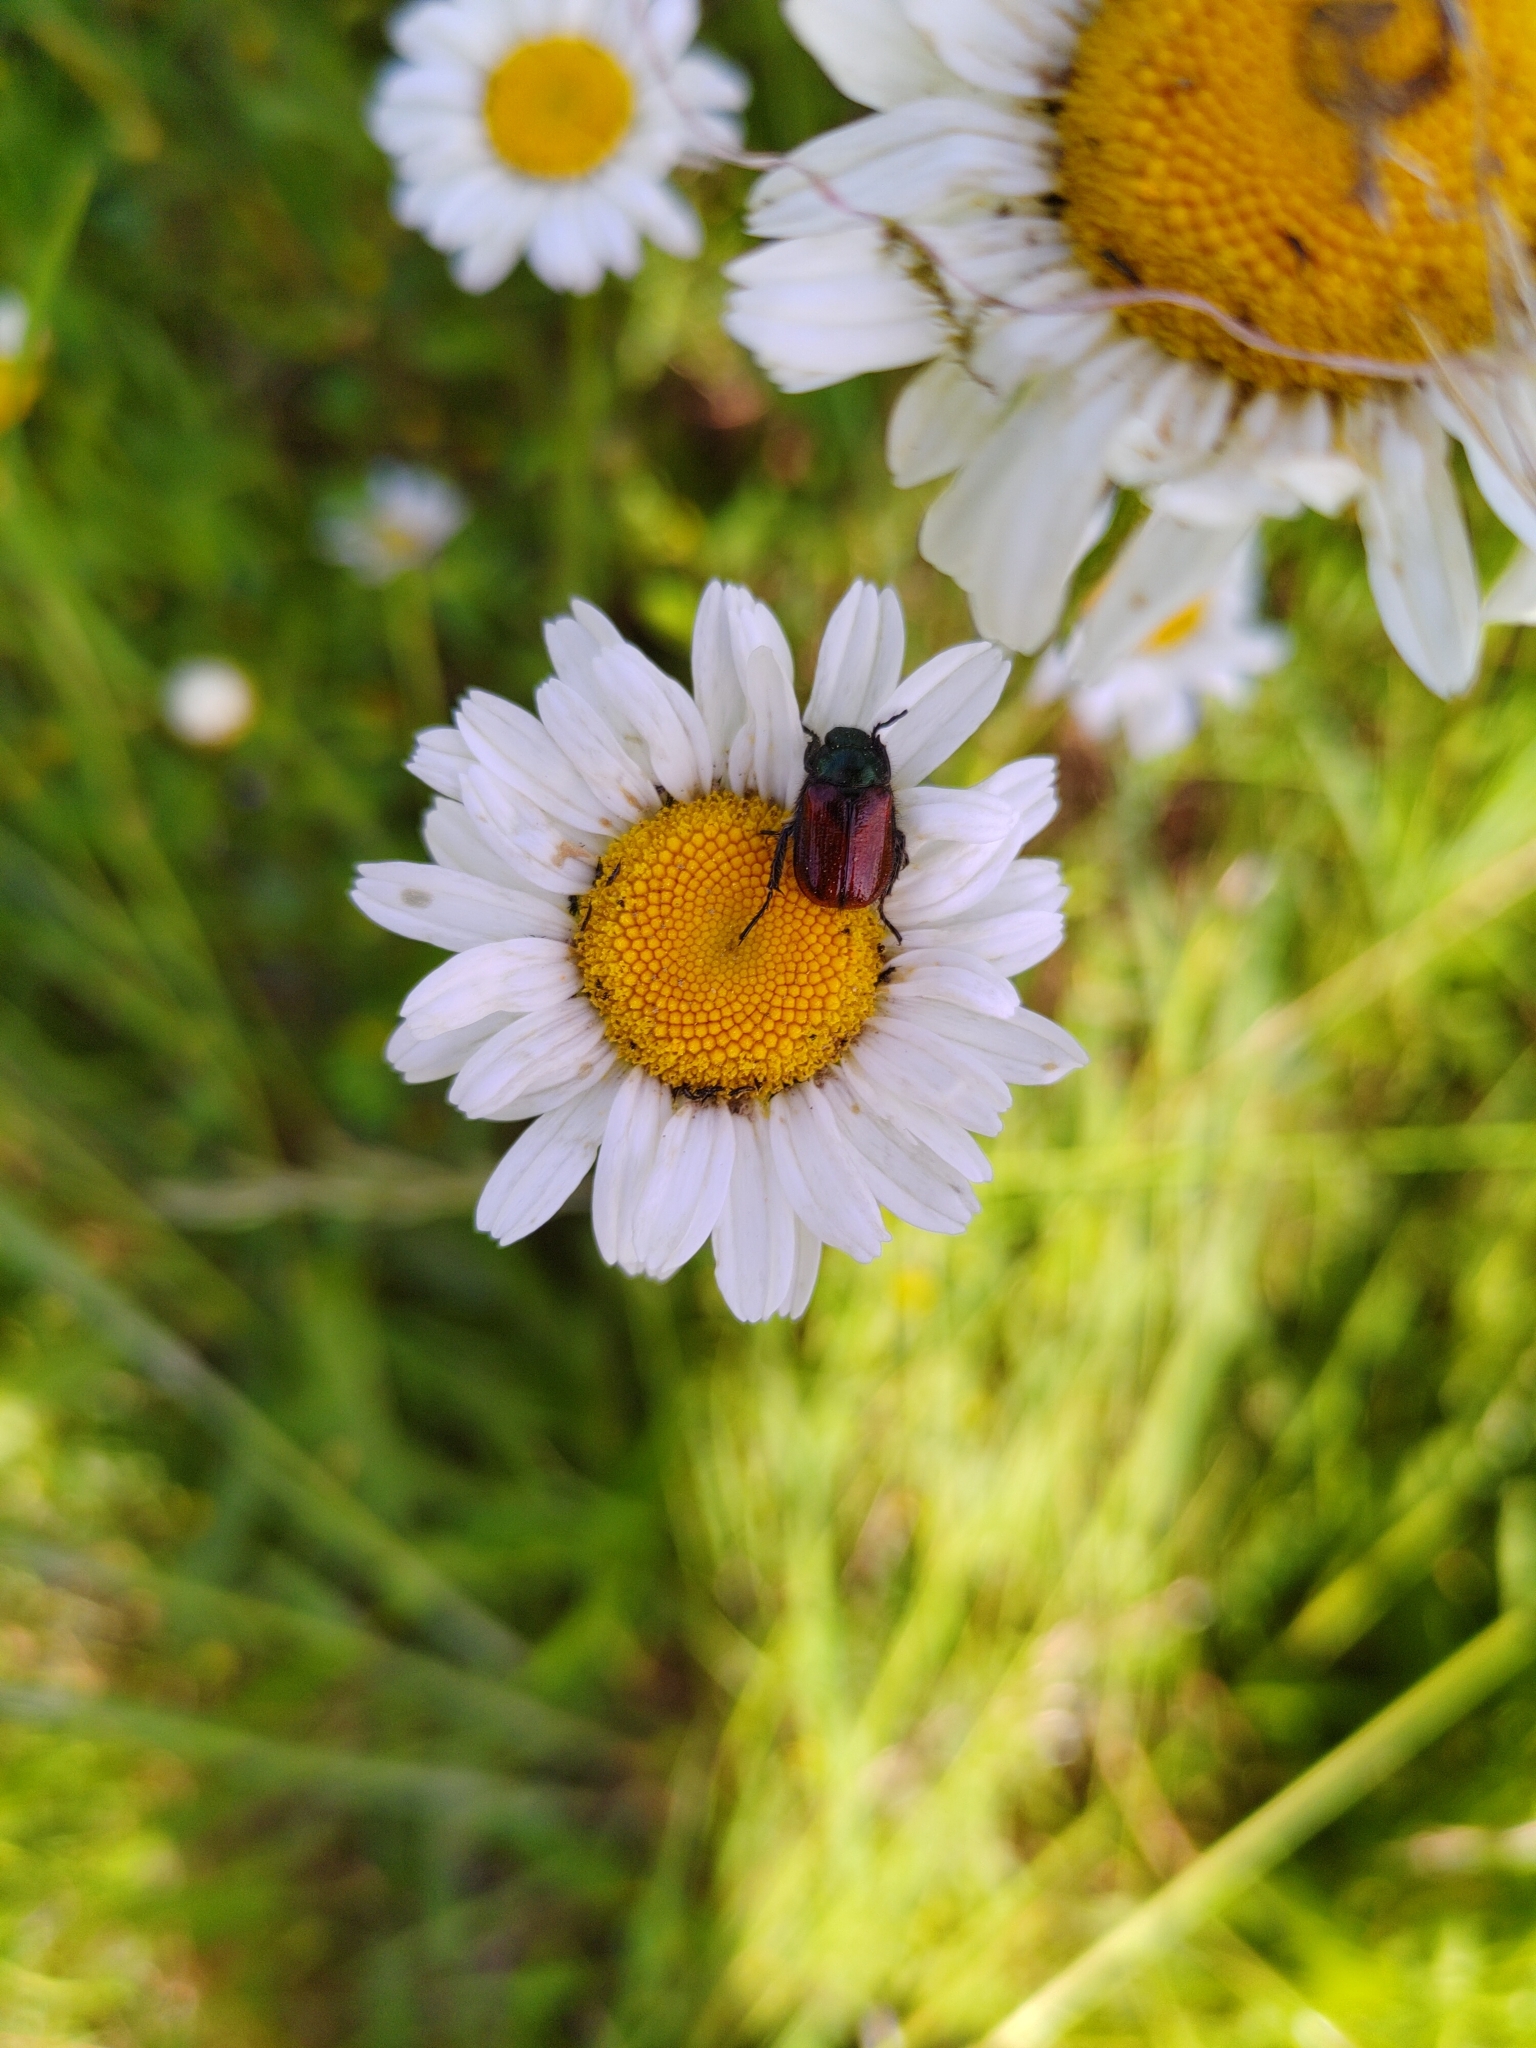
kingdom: Animalia
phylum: Arthropoda
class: Insecta
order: Coleoptera
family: Scarabaeidae
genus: Phyllopertha
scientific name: Phyllopertha horticola
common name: Garden chafer
